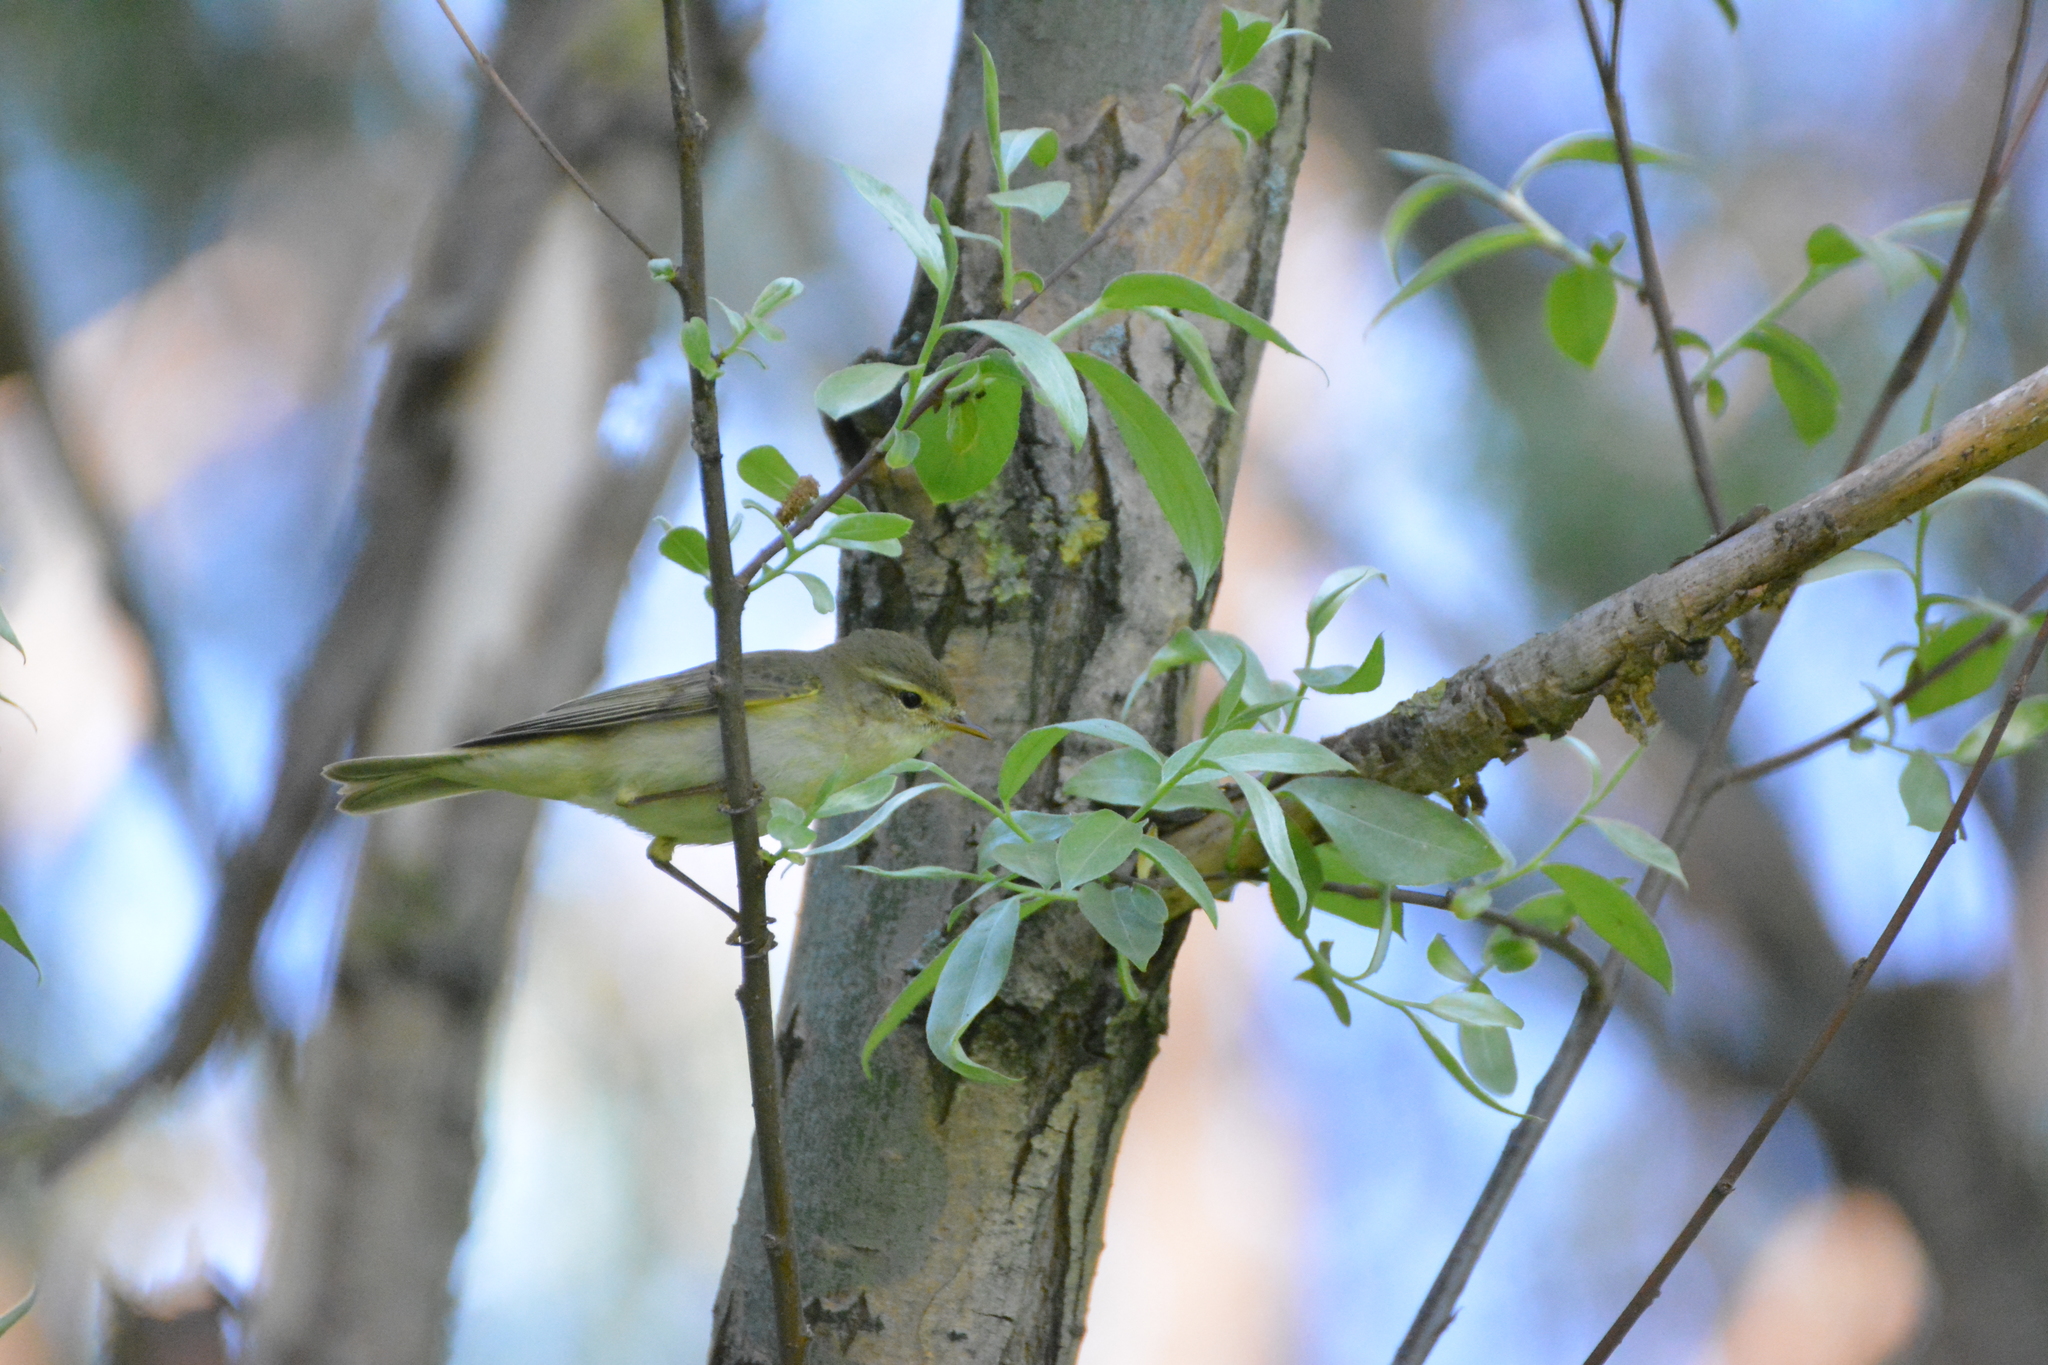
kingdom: Animalia
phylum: Chordata
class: Aves
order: Passeriformes
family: Phylloscopidae
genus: Phylloscopus
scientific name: Phylloscopus trochilus
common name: Willow warbler
